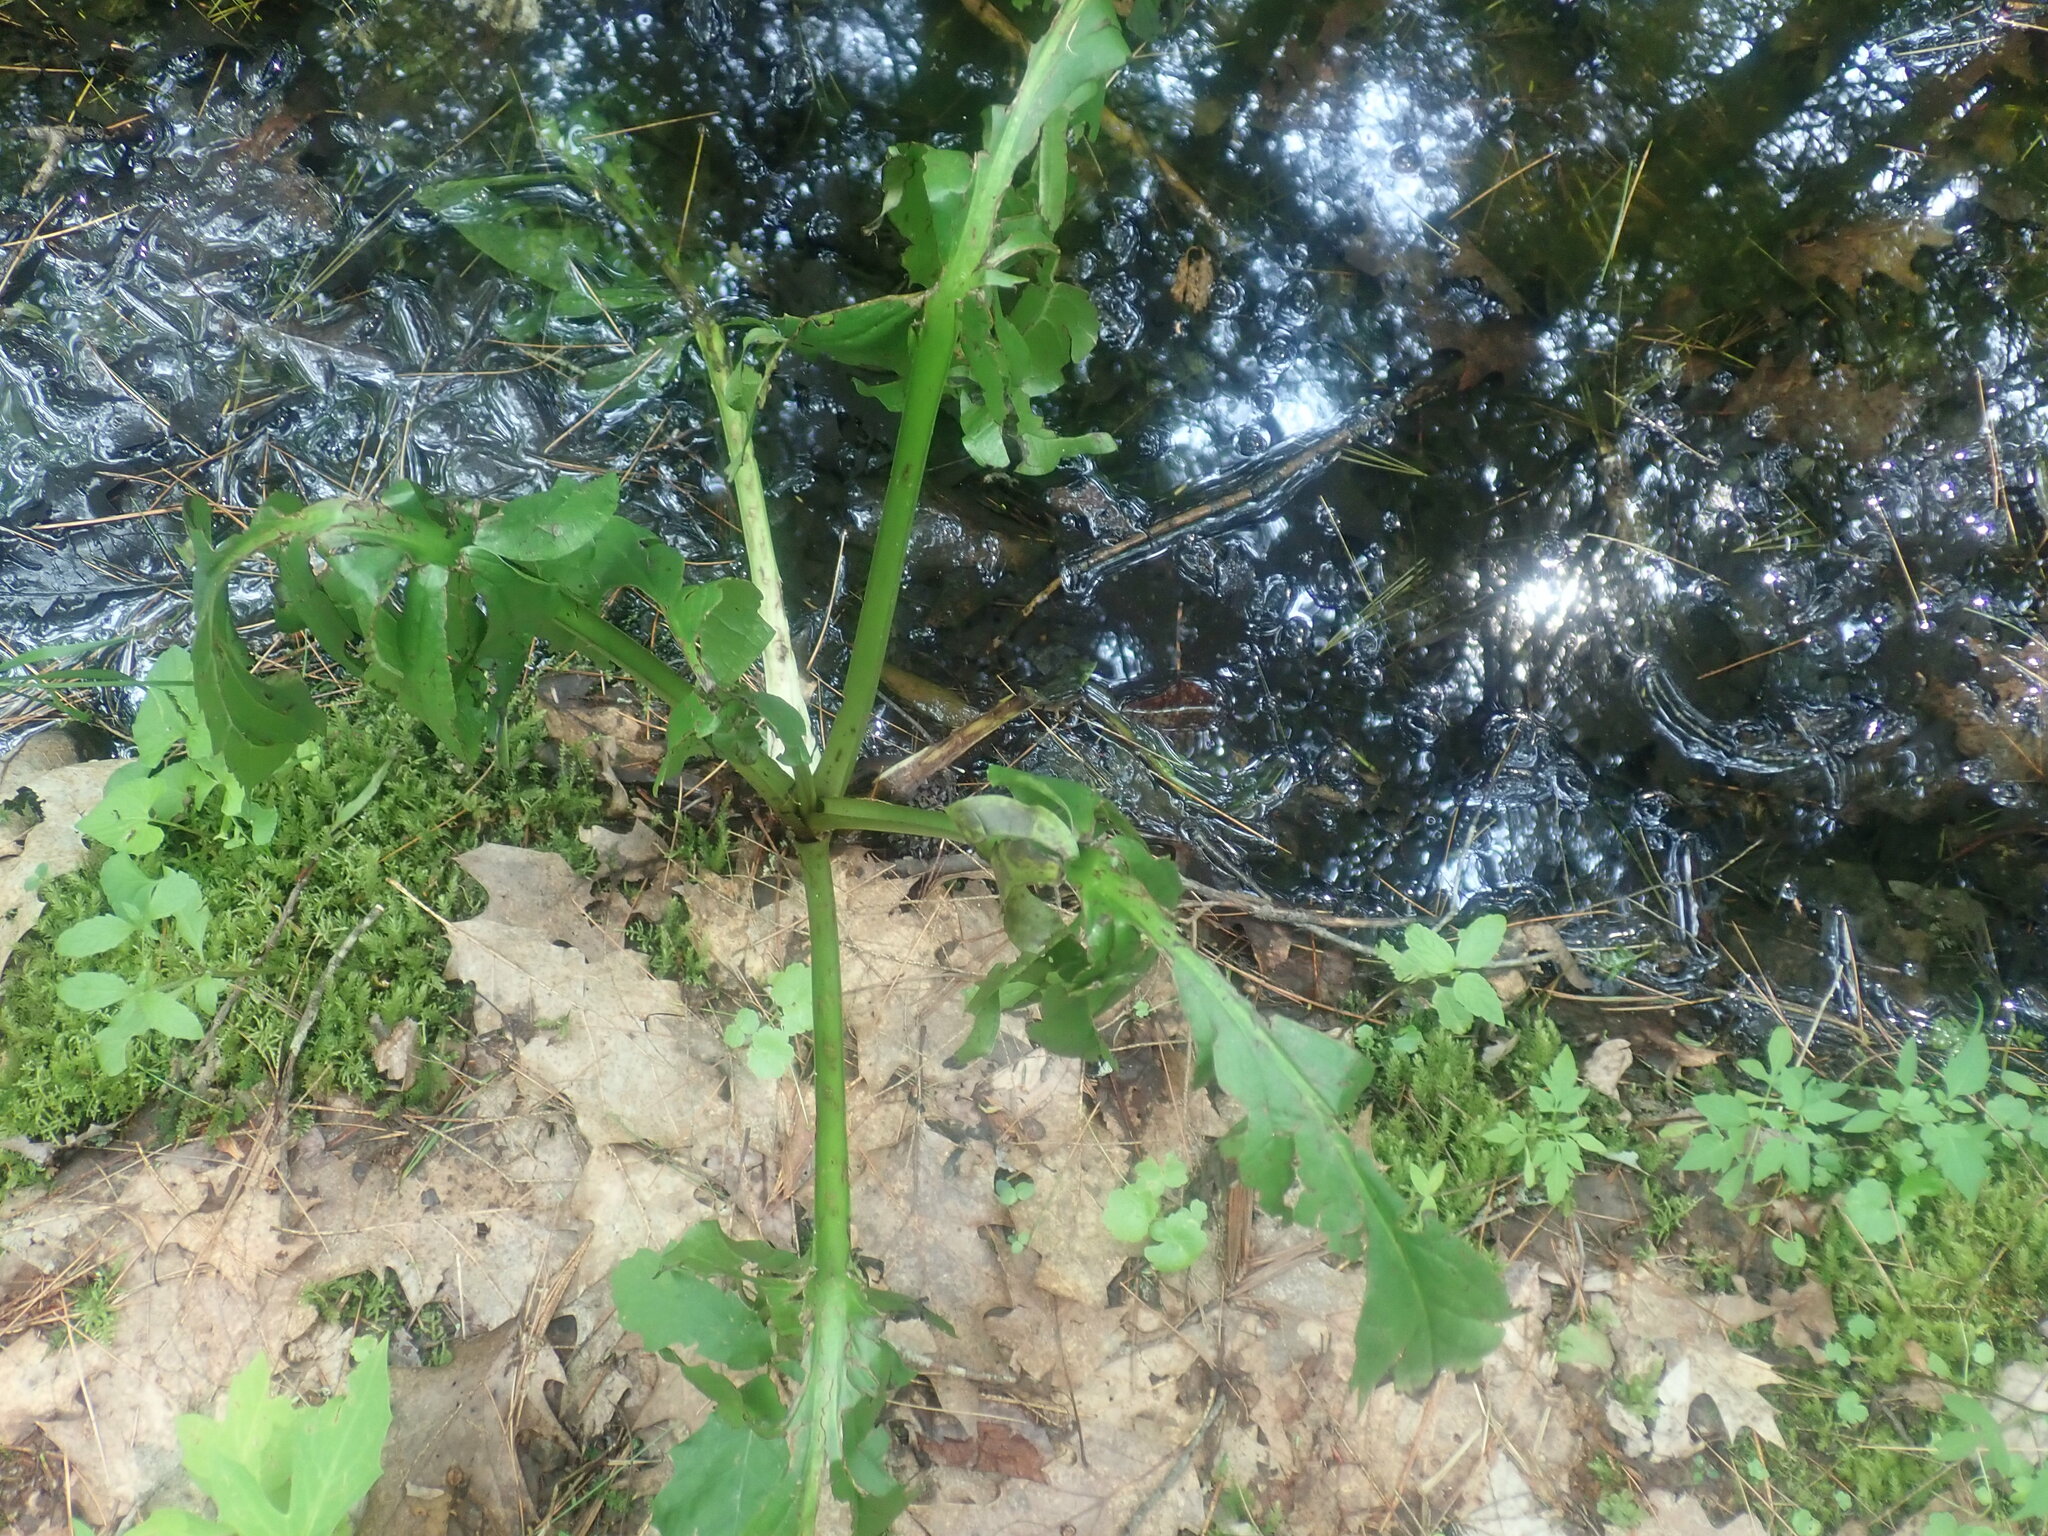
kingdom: Plantae
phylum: Tracheophyta
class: Liliopsida
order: Alismatales
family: Araceae
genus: Symplocarpus
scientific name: Symplocarpus foetidus
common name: Eastern skunk cabbage
